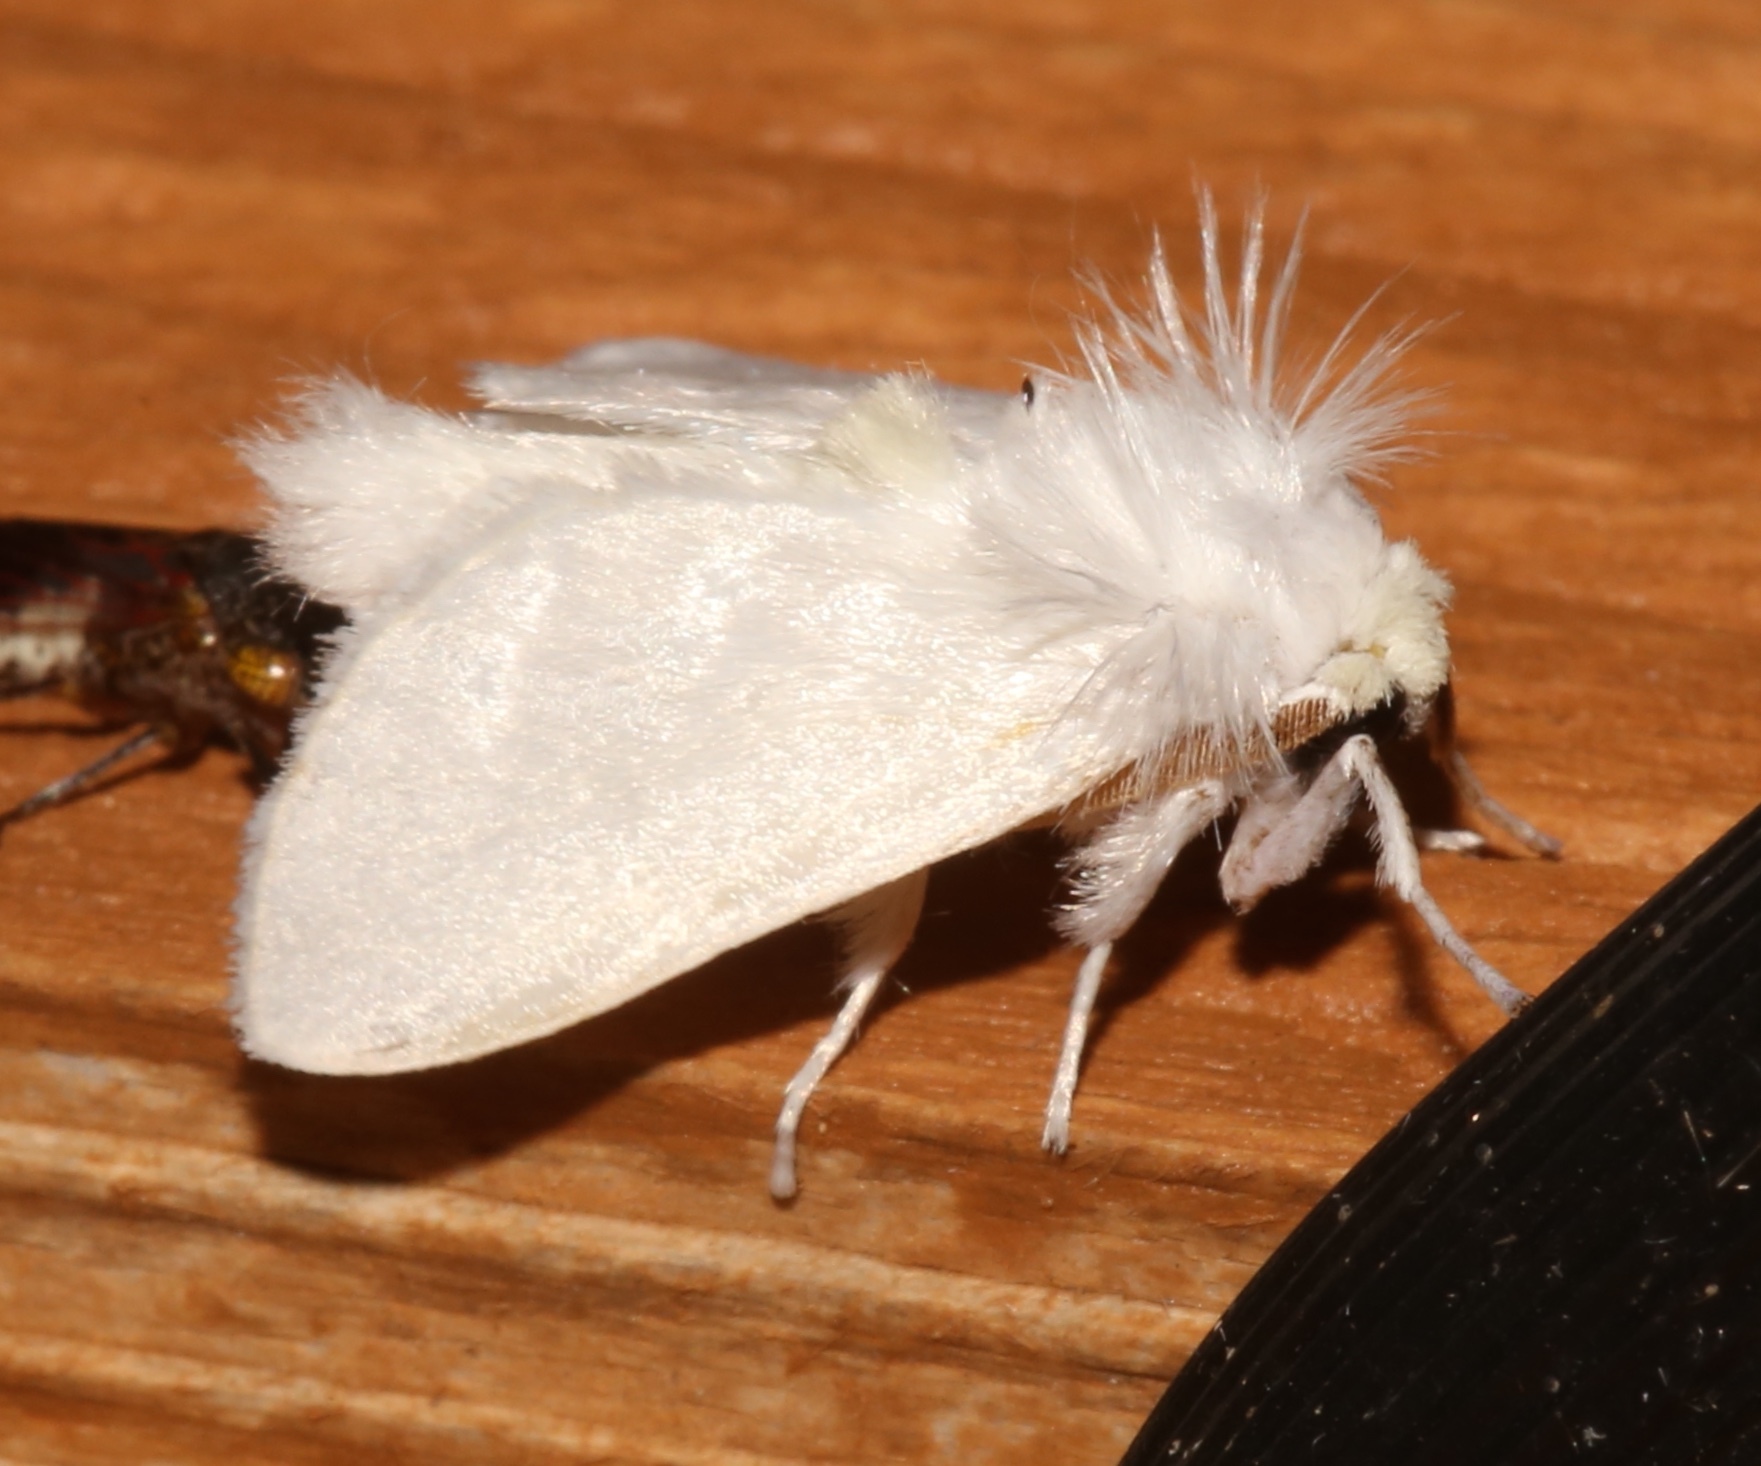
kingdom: Animalia
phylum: Arthropoda
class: Insecta
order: Lepidoptera
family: Megalopygidae
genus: Norape
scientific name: Norape cretata
